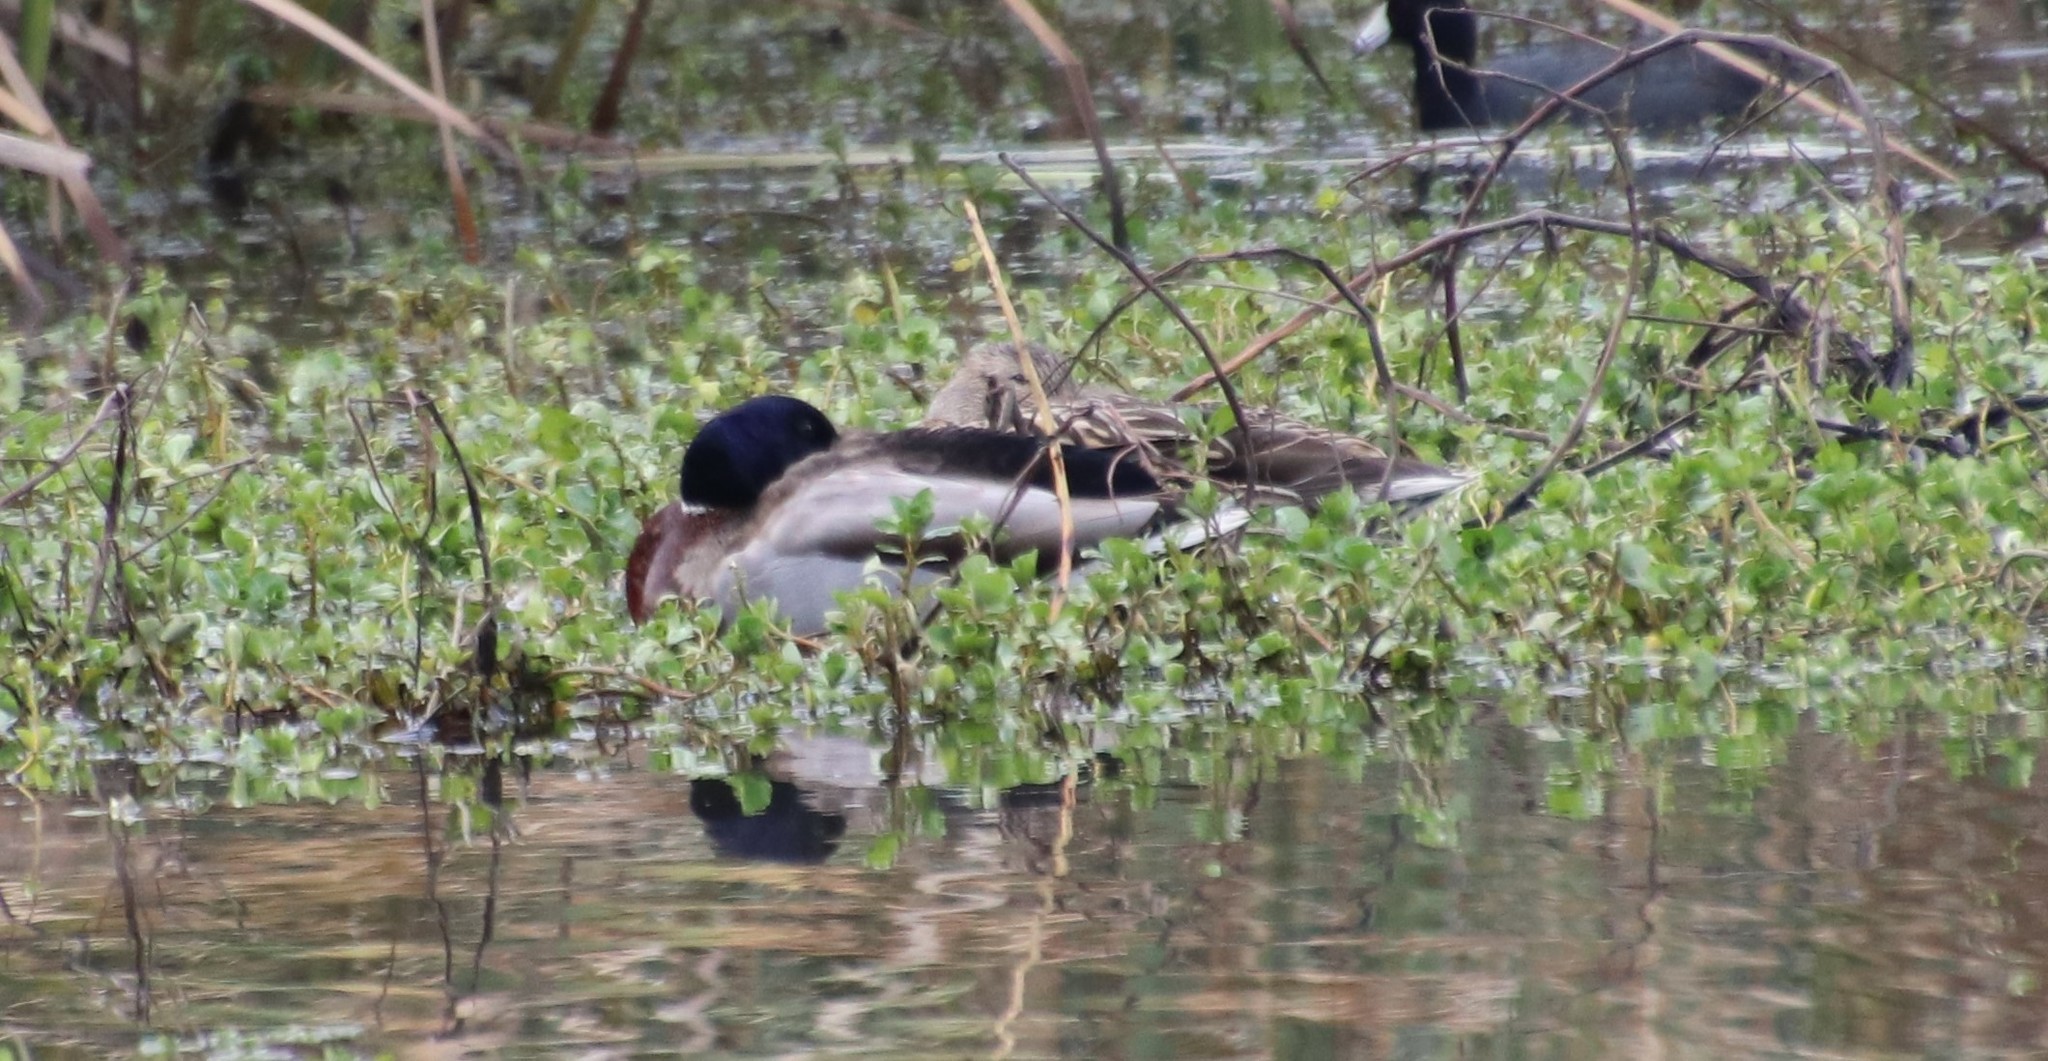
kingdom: Animalia
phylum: Chordata
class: Aves
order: Anseriformes
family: Anatidae
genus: Anas
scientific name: Anas platyrhynchos
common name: Mallard
